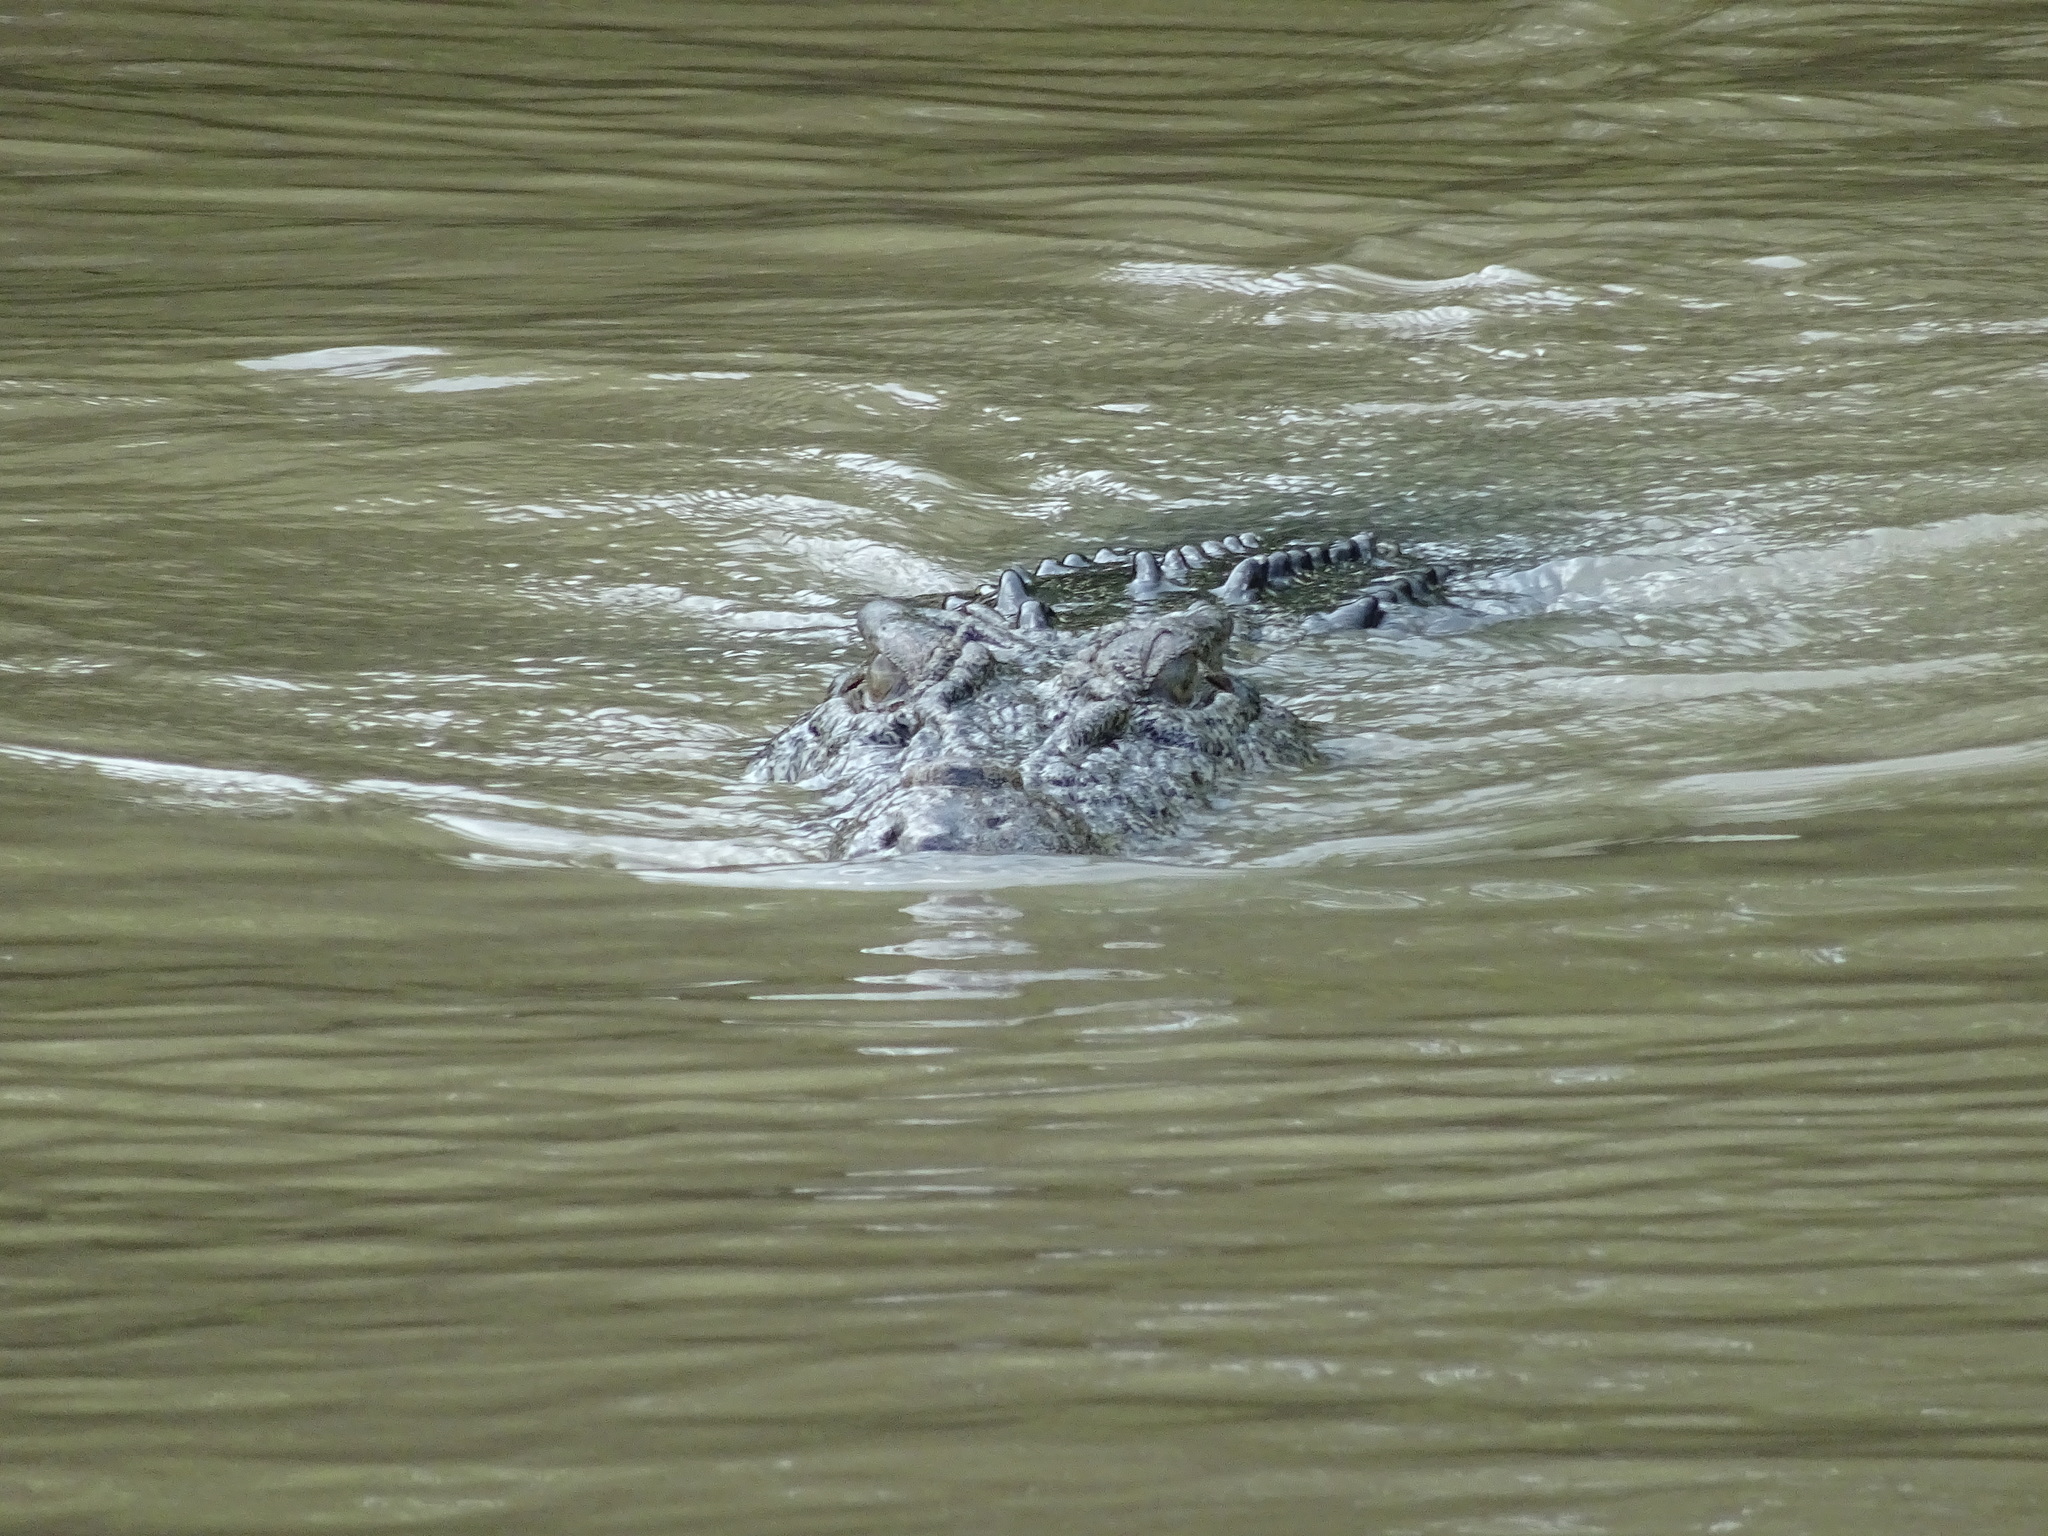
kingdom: Animalia
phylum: Chordata
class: Crocodylia
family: Crocodylidae
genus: Crocodylus
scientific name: Crocodylus porosus
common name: Saltwater crocodile
